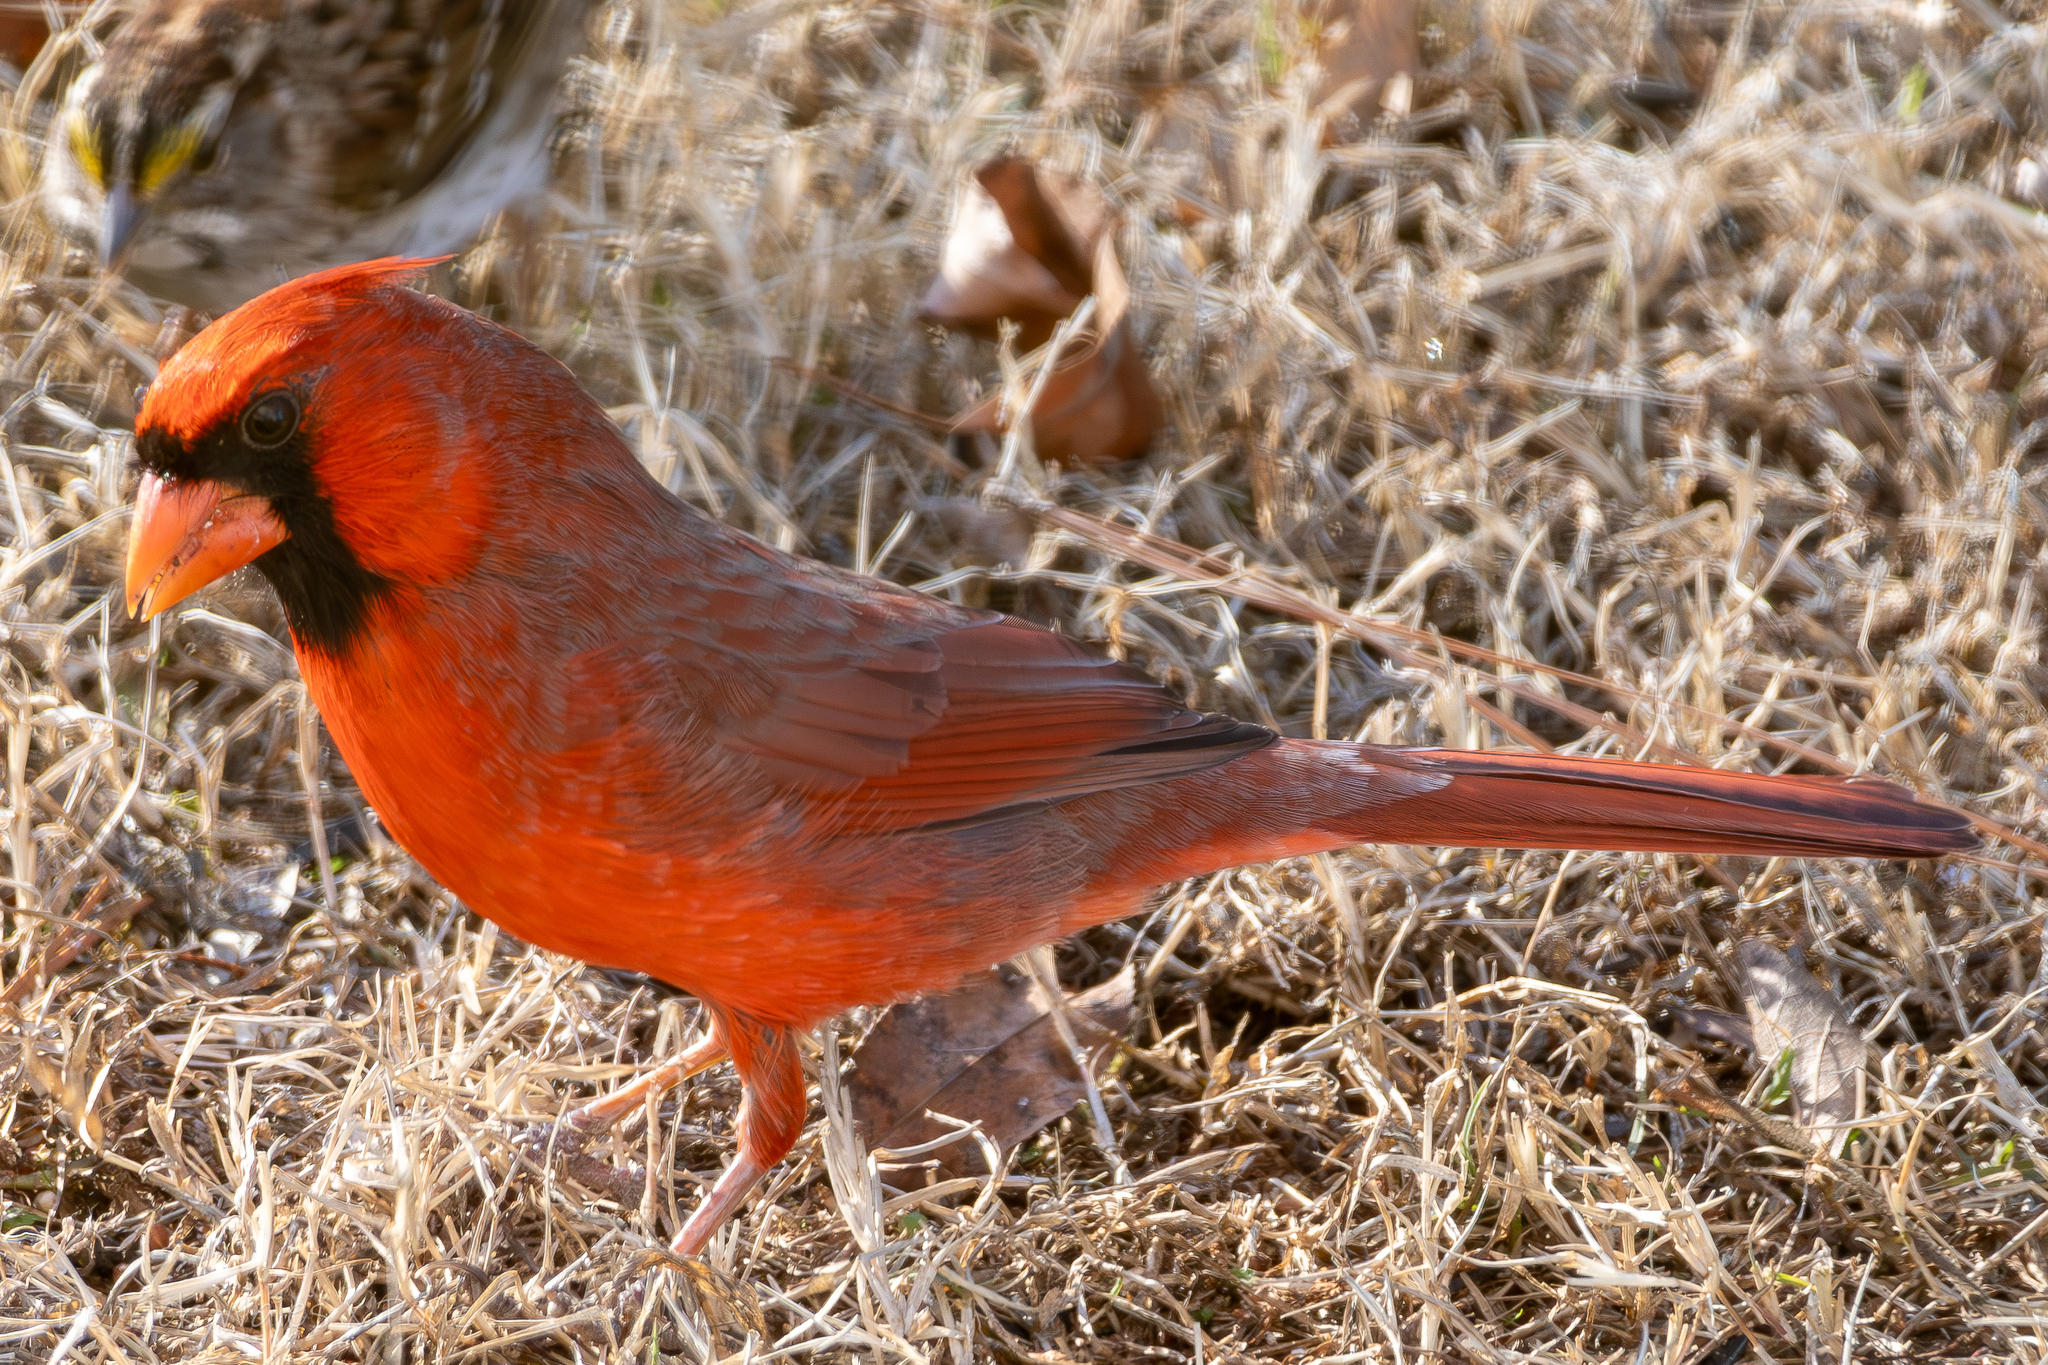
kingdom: Animalia
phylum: Chordata
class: Aves
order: Passeriformes
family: Cardinalidae
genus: Cardinalis
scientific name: Cardinalis cardinalis
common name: Northern cardinal
